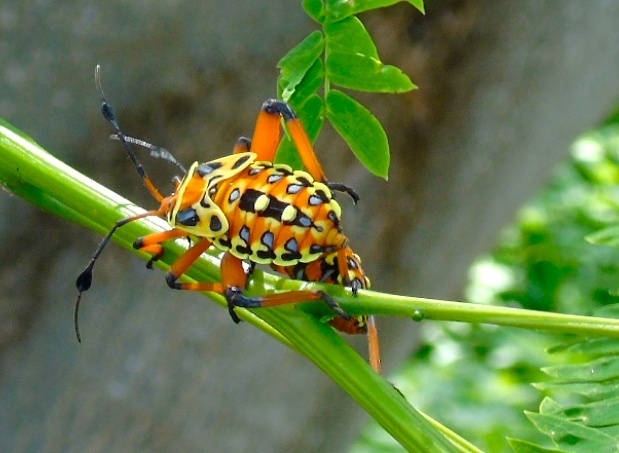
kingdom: Animalia
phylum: Arthropoda
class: Insecta
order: Hemiptera
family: Coreidae
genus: Pachylis
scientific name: Pachylis nervosus
